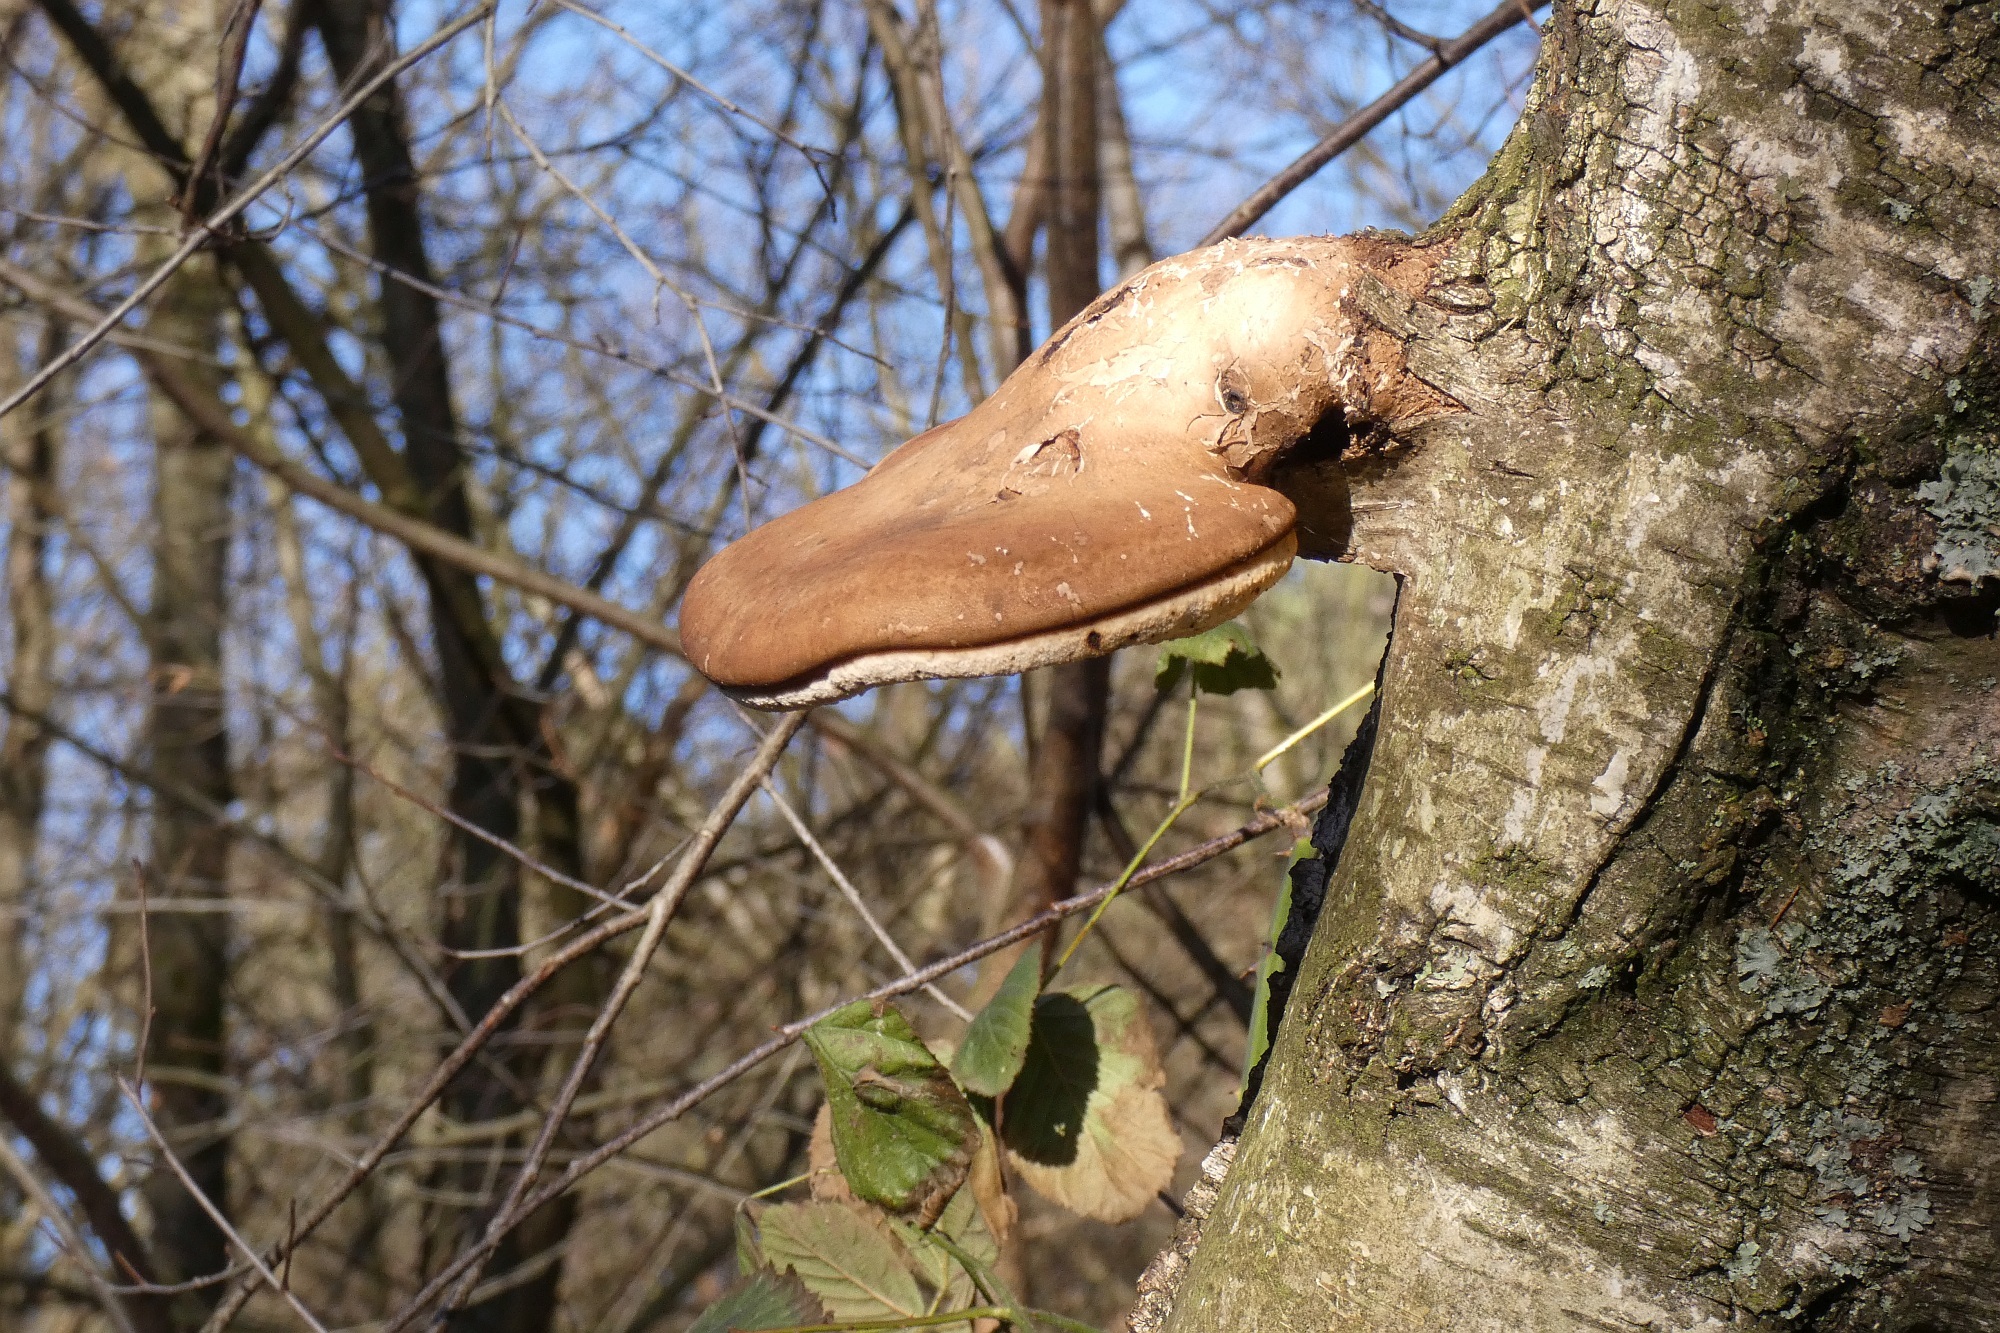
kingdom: Fungi
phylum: Basidiomycota
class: Agaricomycetes
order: Polyporales
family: Fomitopsidaceae
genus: Fomitopsis
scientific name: Fomitopsis betulina
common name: Birch polypore
